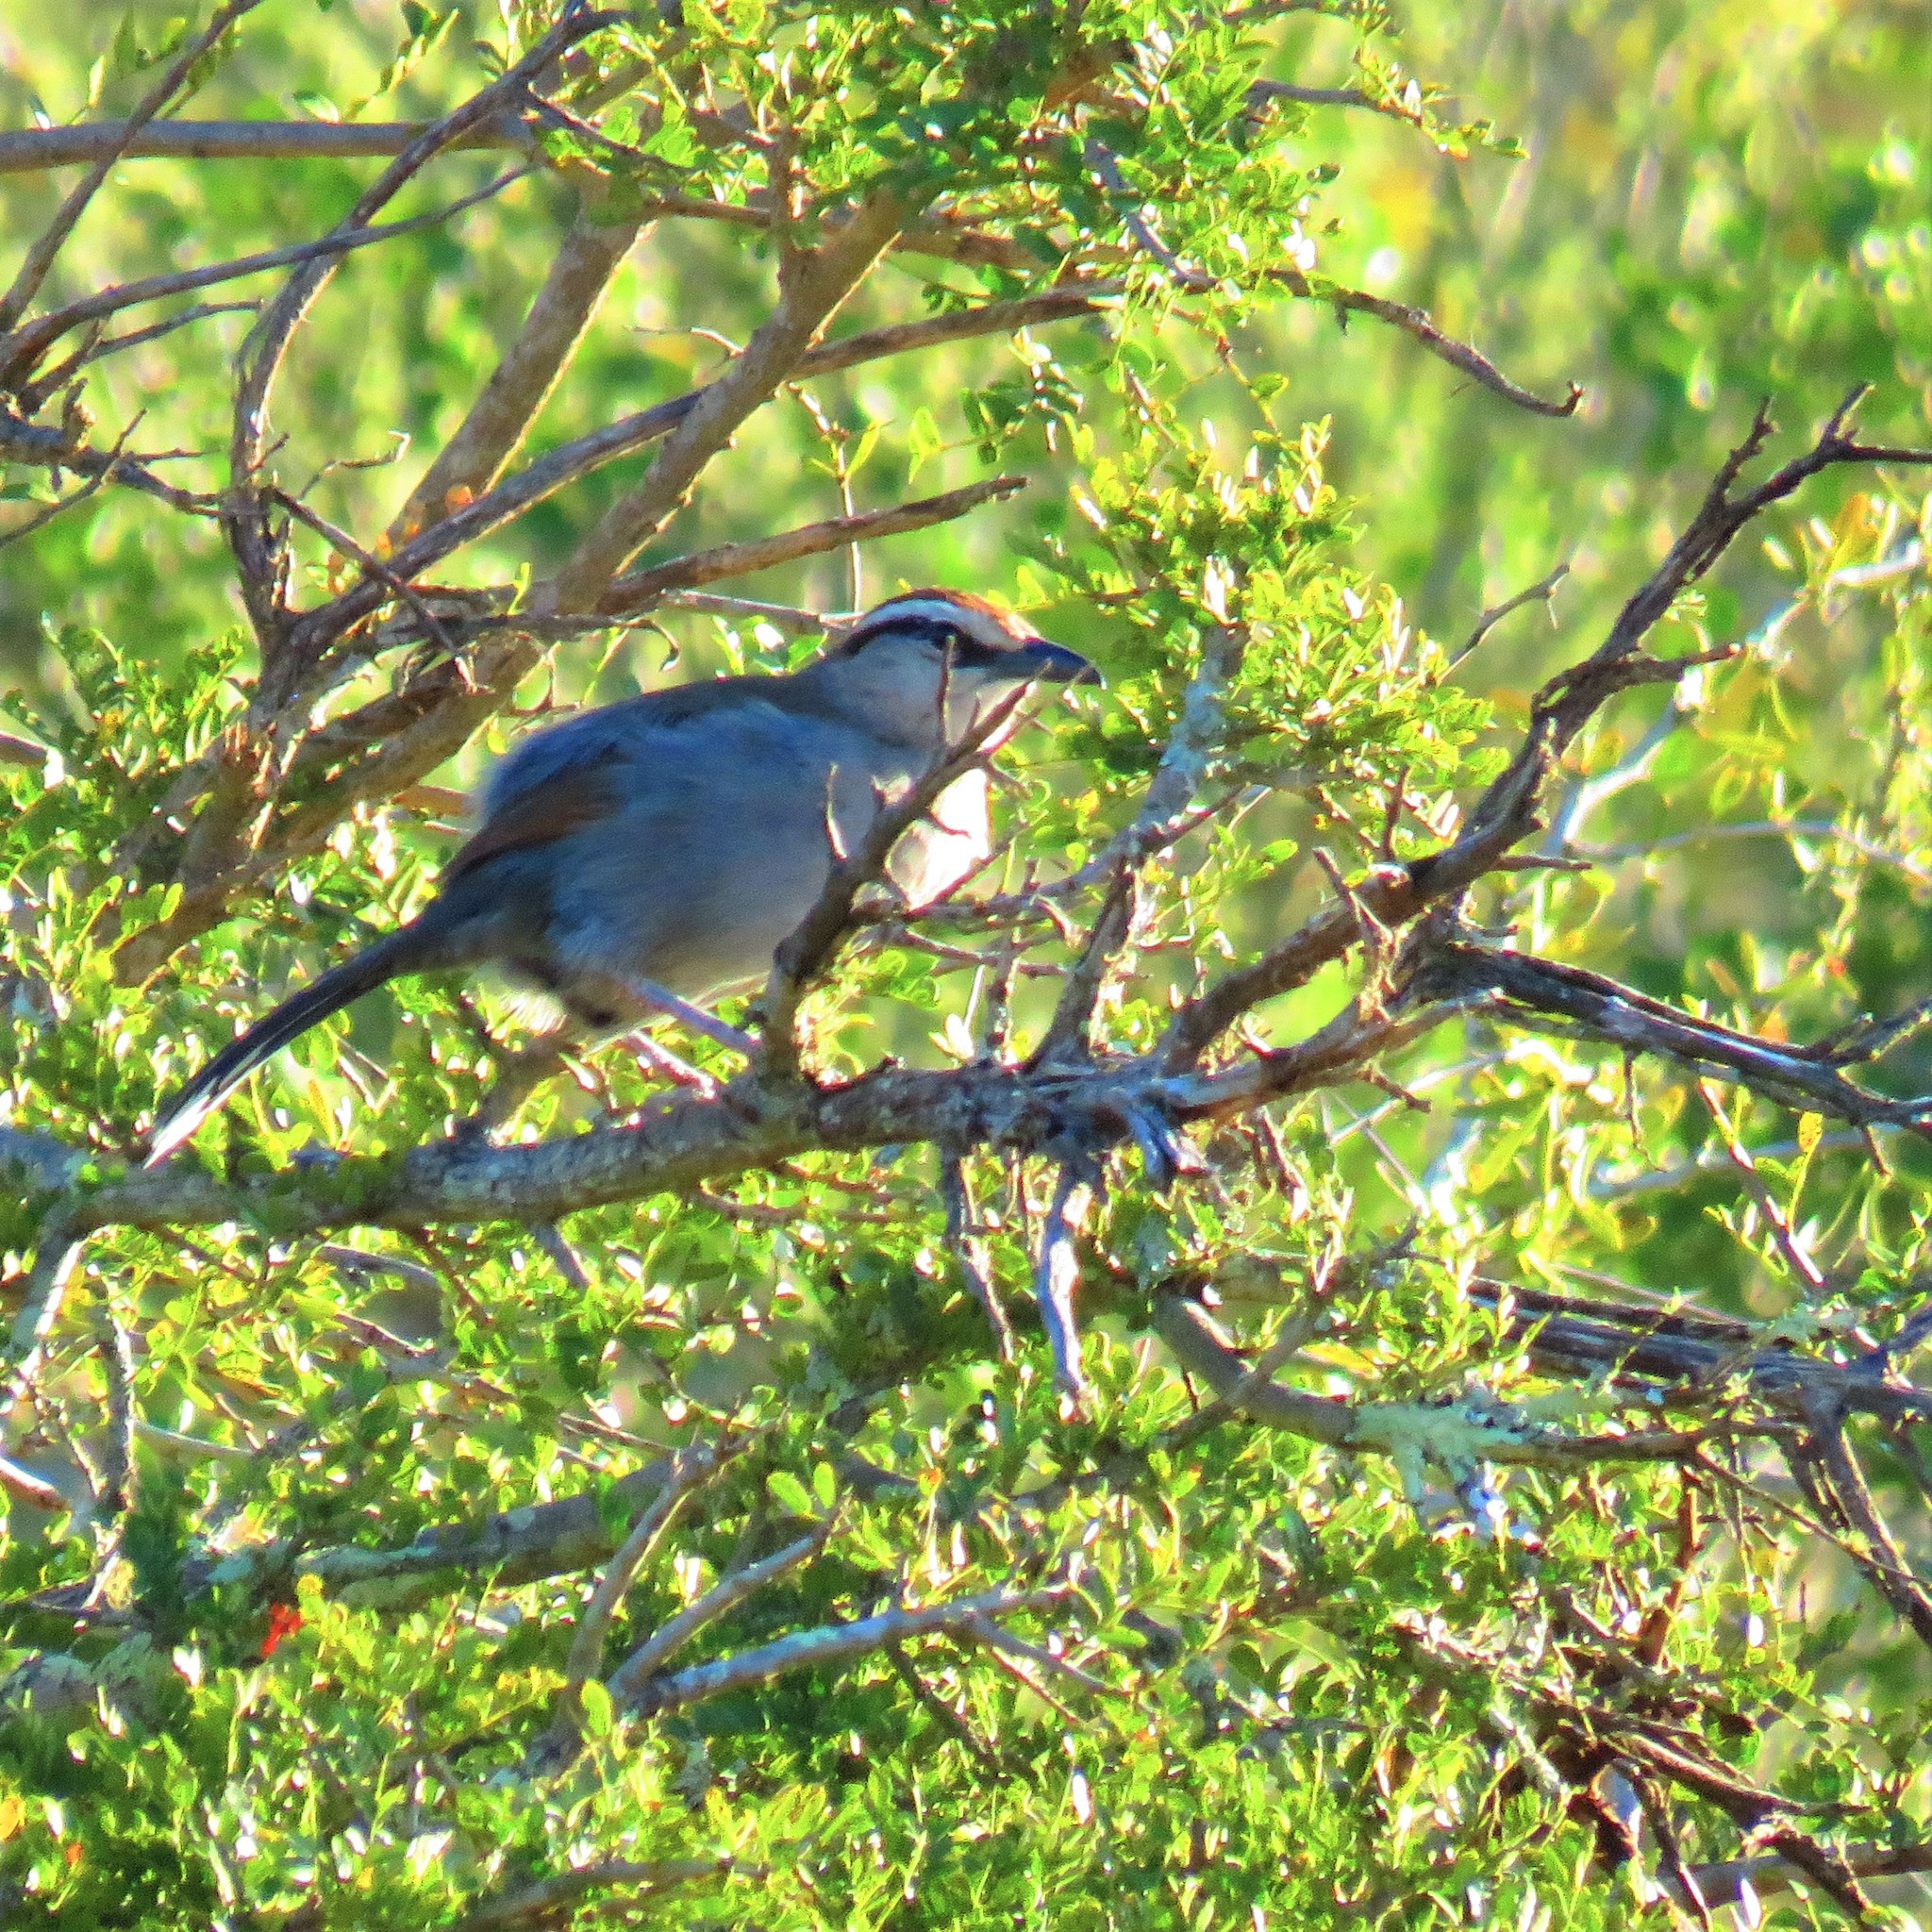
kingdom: Animalia
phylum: Chordata
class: Aves
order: Passeriformes
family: Malaconotidae
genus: Tchagra
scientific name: Tchagra tchagra
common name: Southern tchagra
